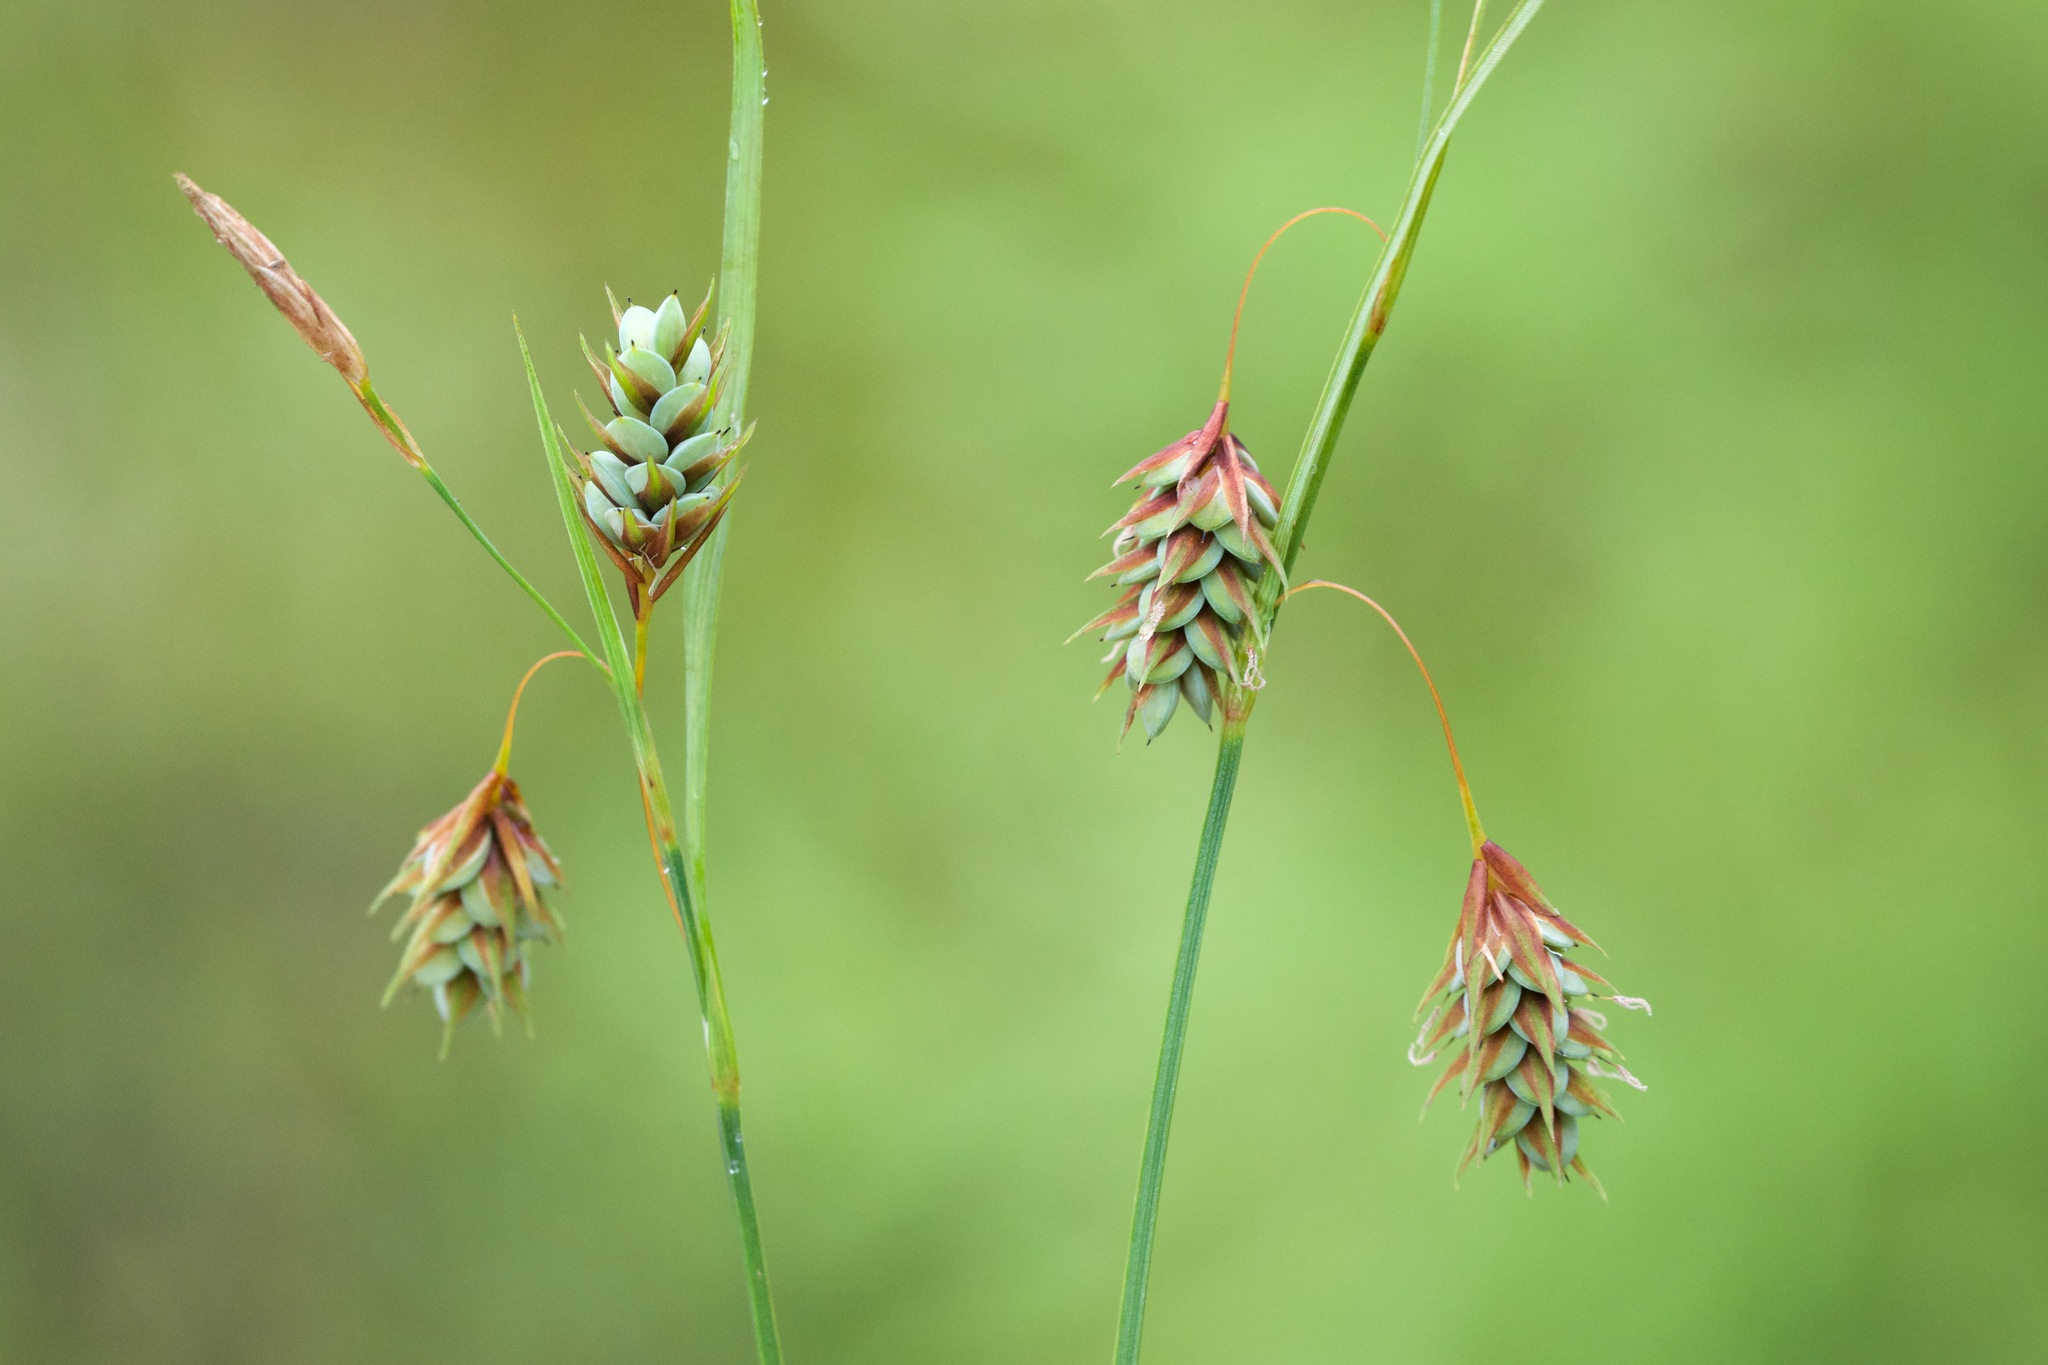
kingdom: Plantae
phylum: Tracheophyta
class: Liliopsida
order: Poales
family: Cyperaceae
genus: Carex
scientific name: Carex magellanica
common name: Bog sedge
